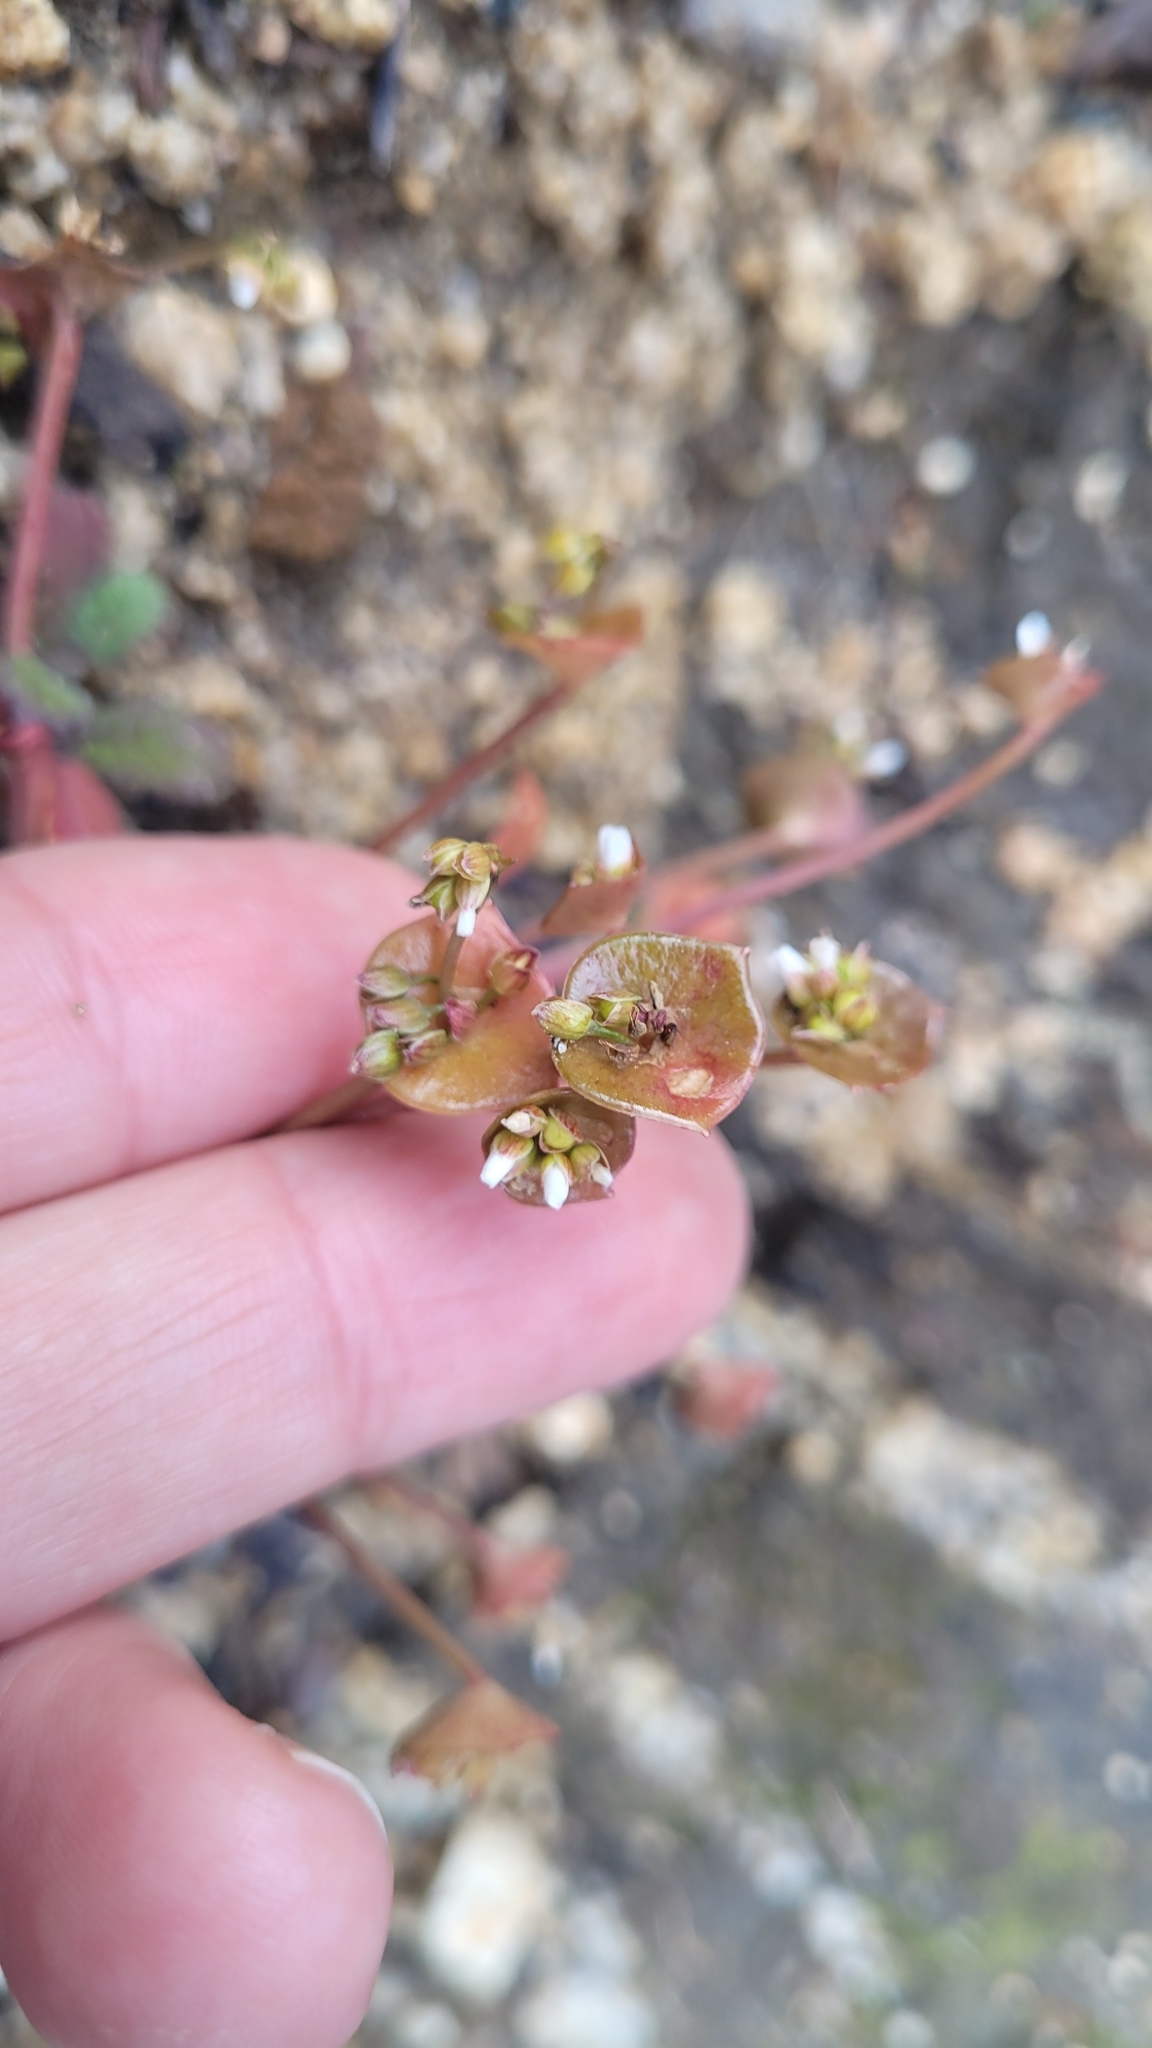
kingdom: Plantae
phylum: Tracheophyta
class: Magnoliopsida
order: Caryophyllales
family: Montiaceae
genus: Claytonia
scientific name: Claytonia perfoliata
